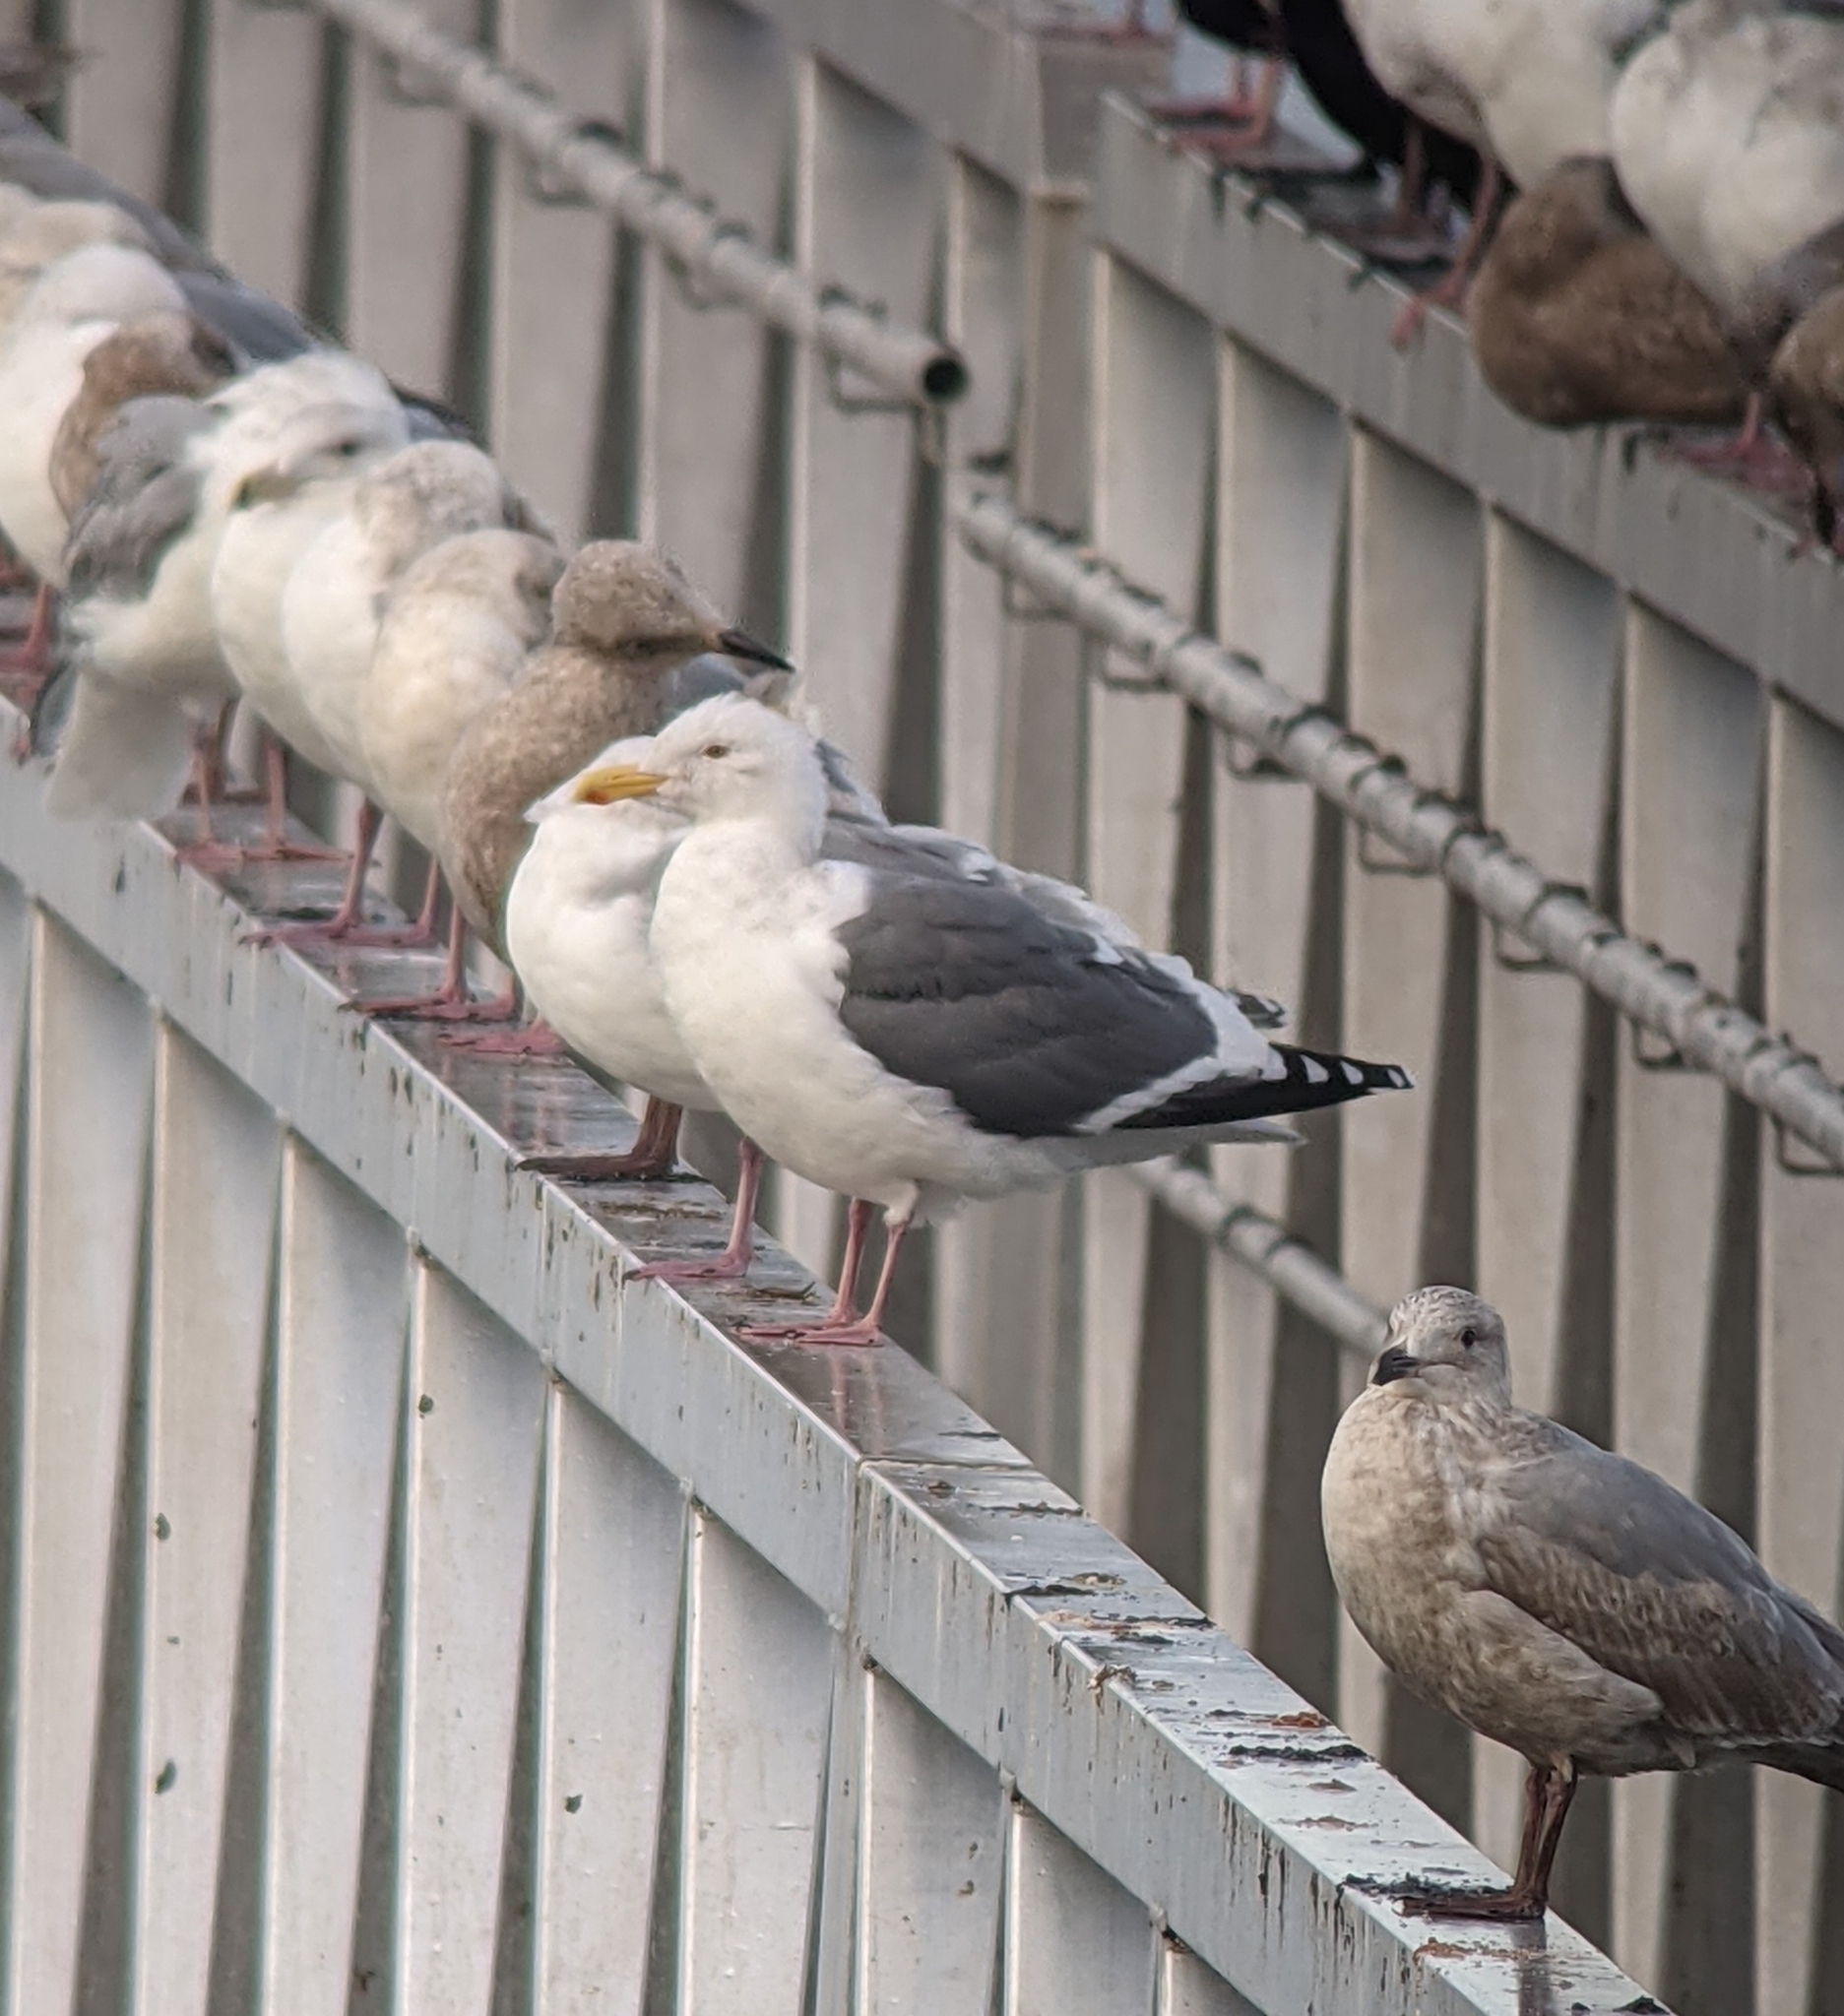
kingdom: Animalia
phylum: Chordata
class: Aves
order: Charadriiformes
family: Laridae
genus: Larus
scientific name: Larus occidentalis
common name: Western gull
